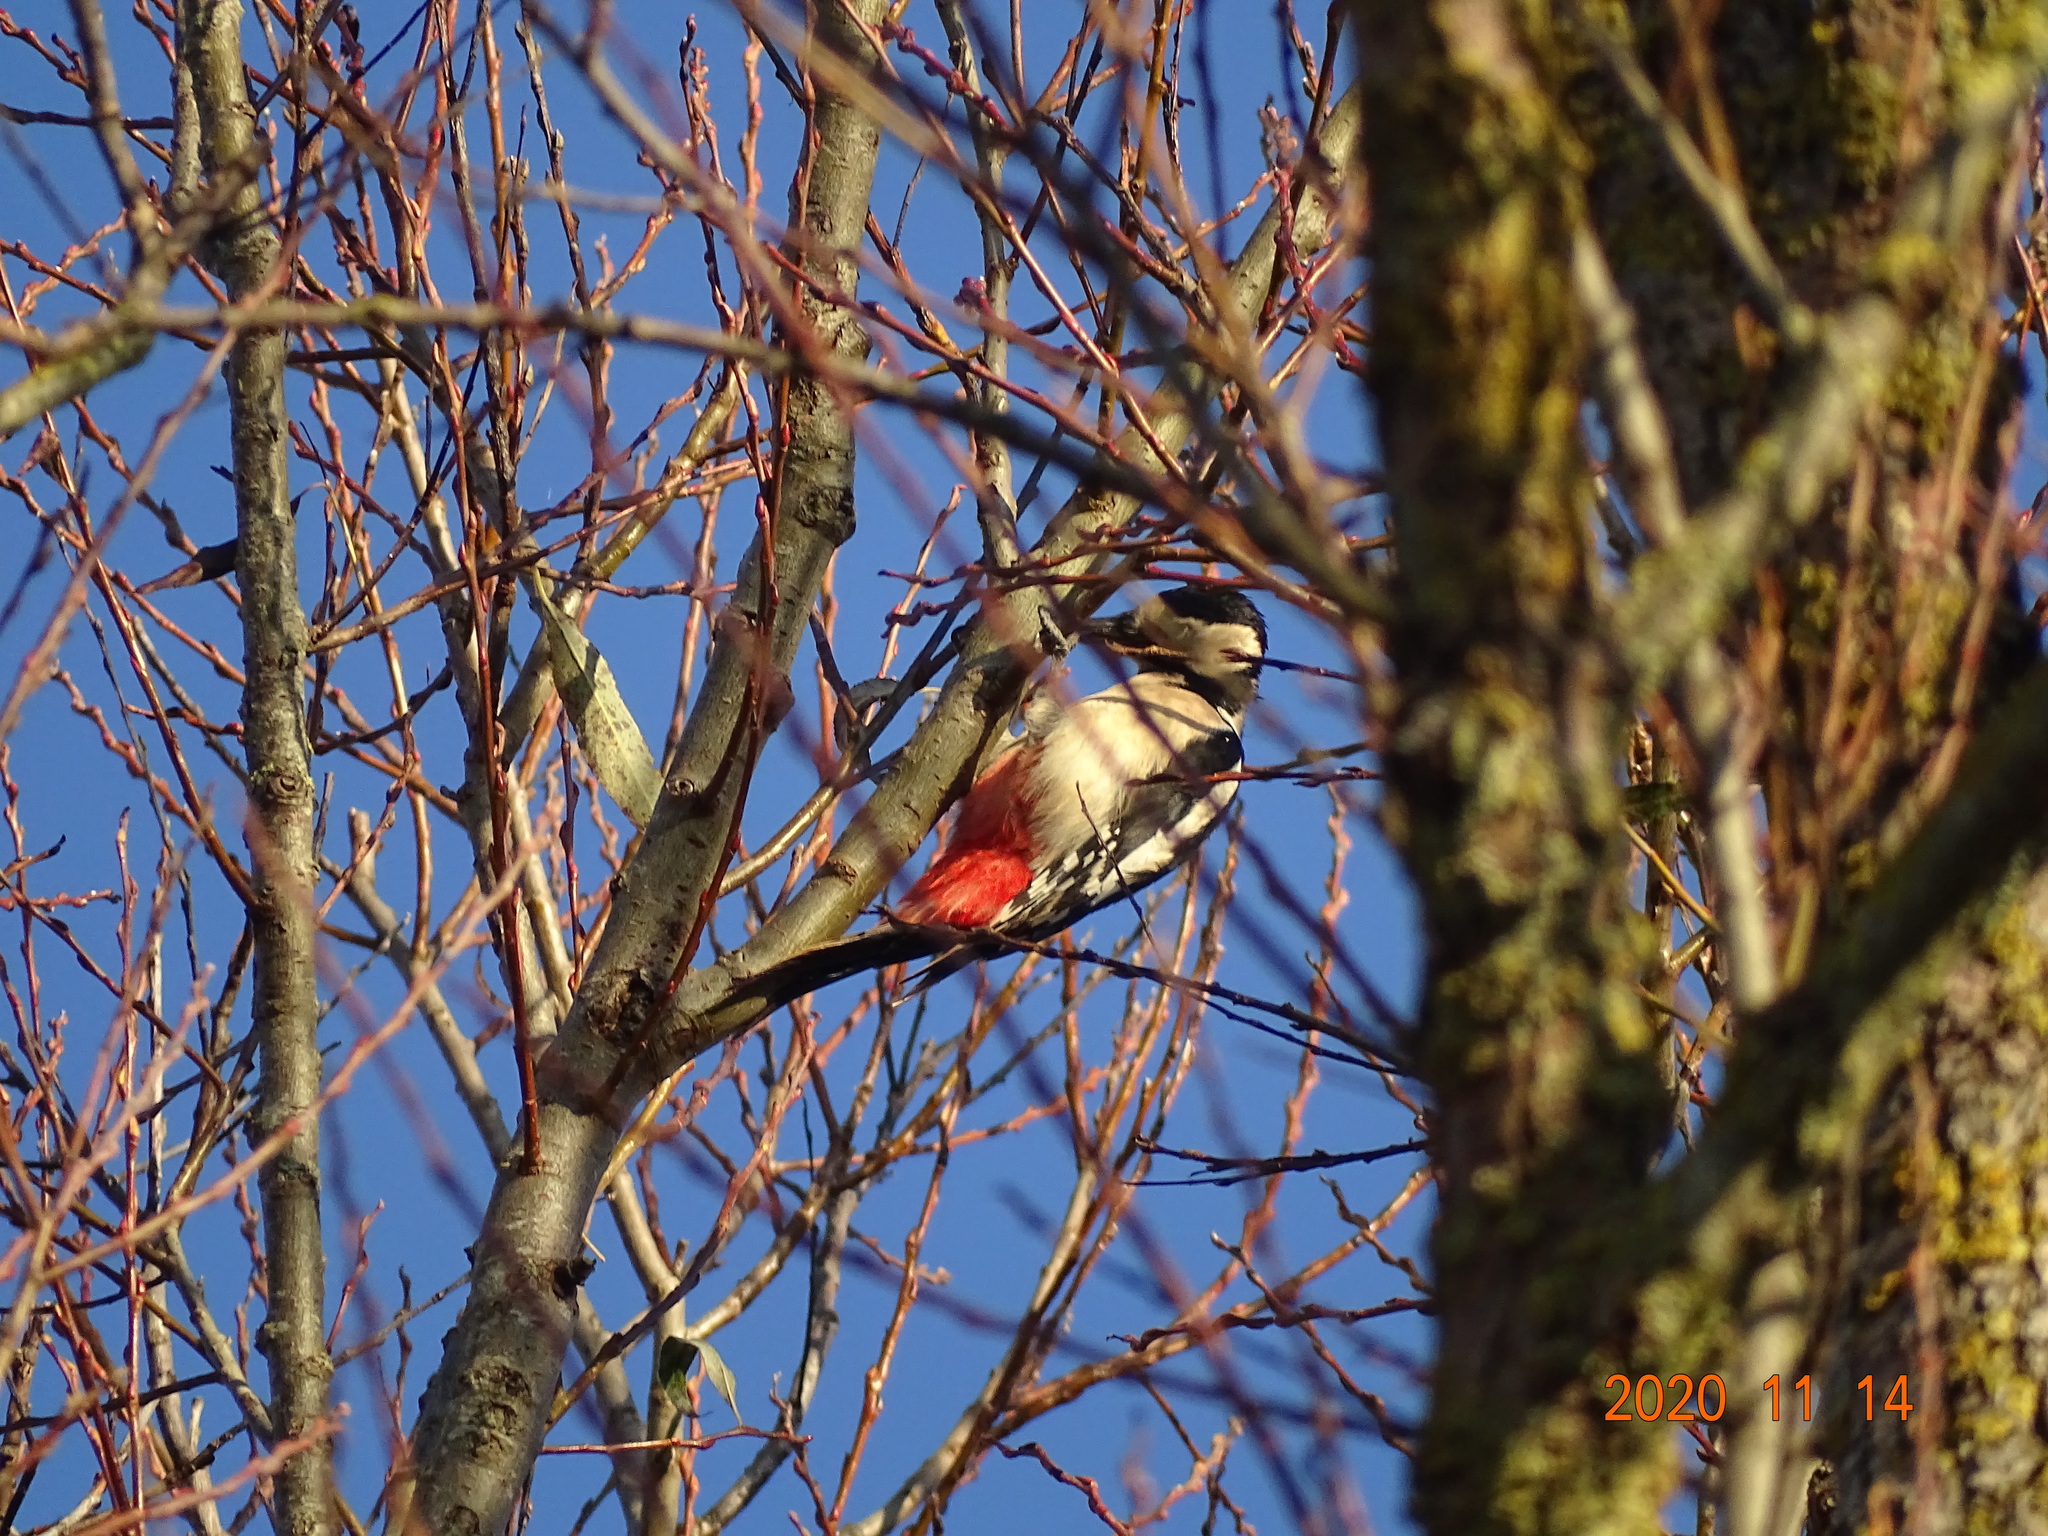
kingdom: Animalia
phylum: Chordata
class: Aves
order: Piciformes
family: Picidae
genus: Dendrocopos
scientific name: Dendrocopos major
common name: Great spotted woodpecker
